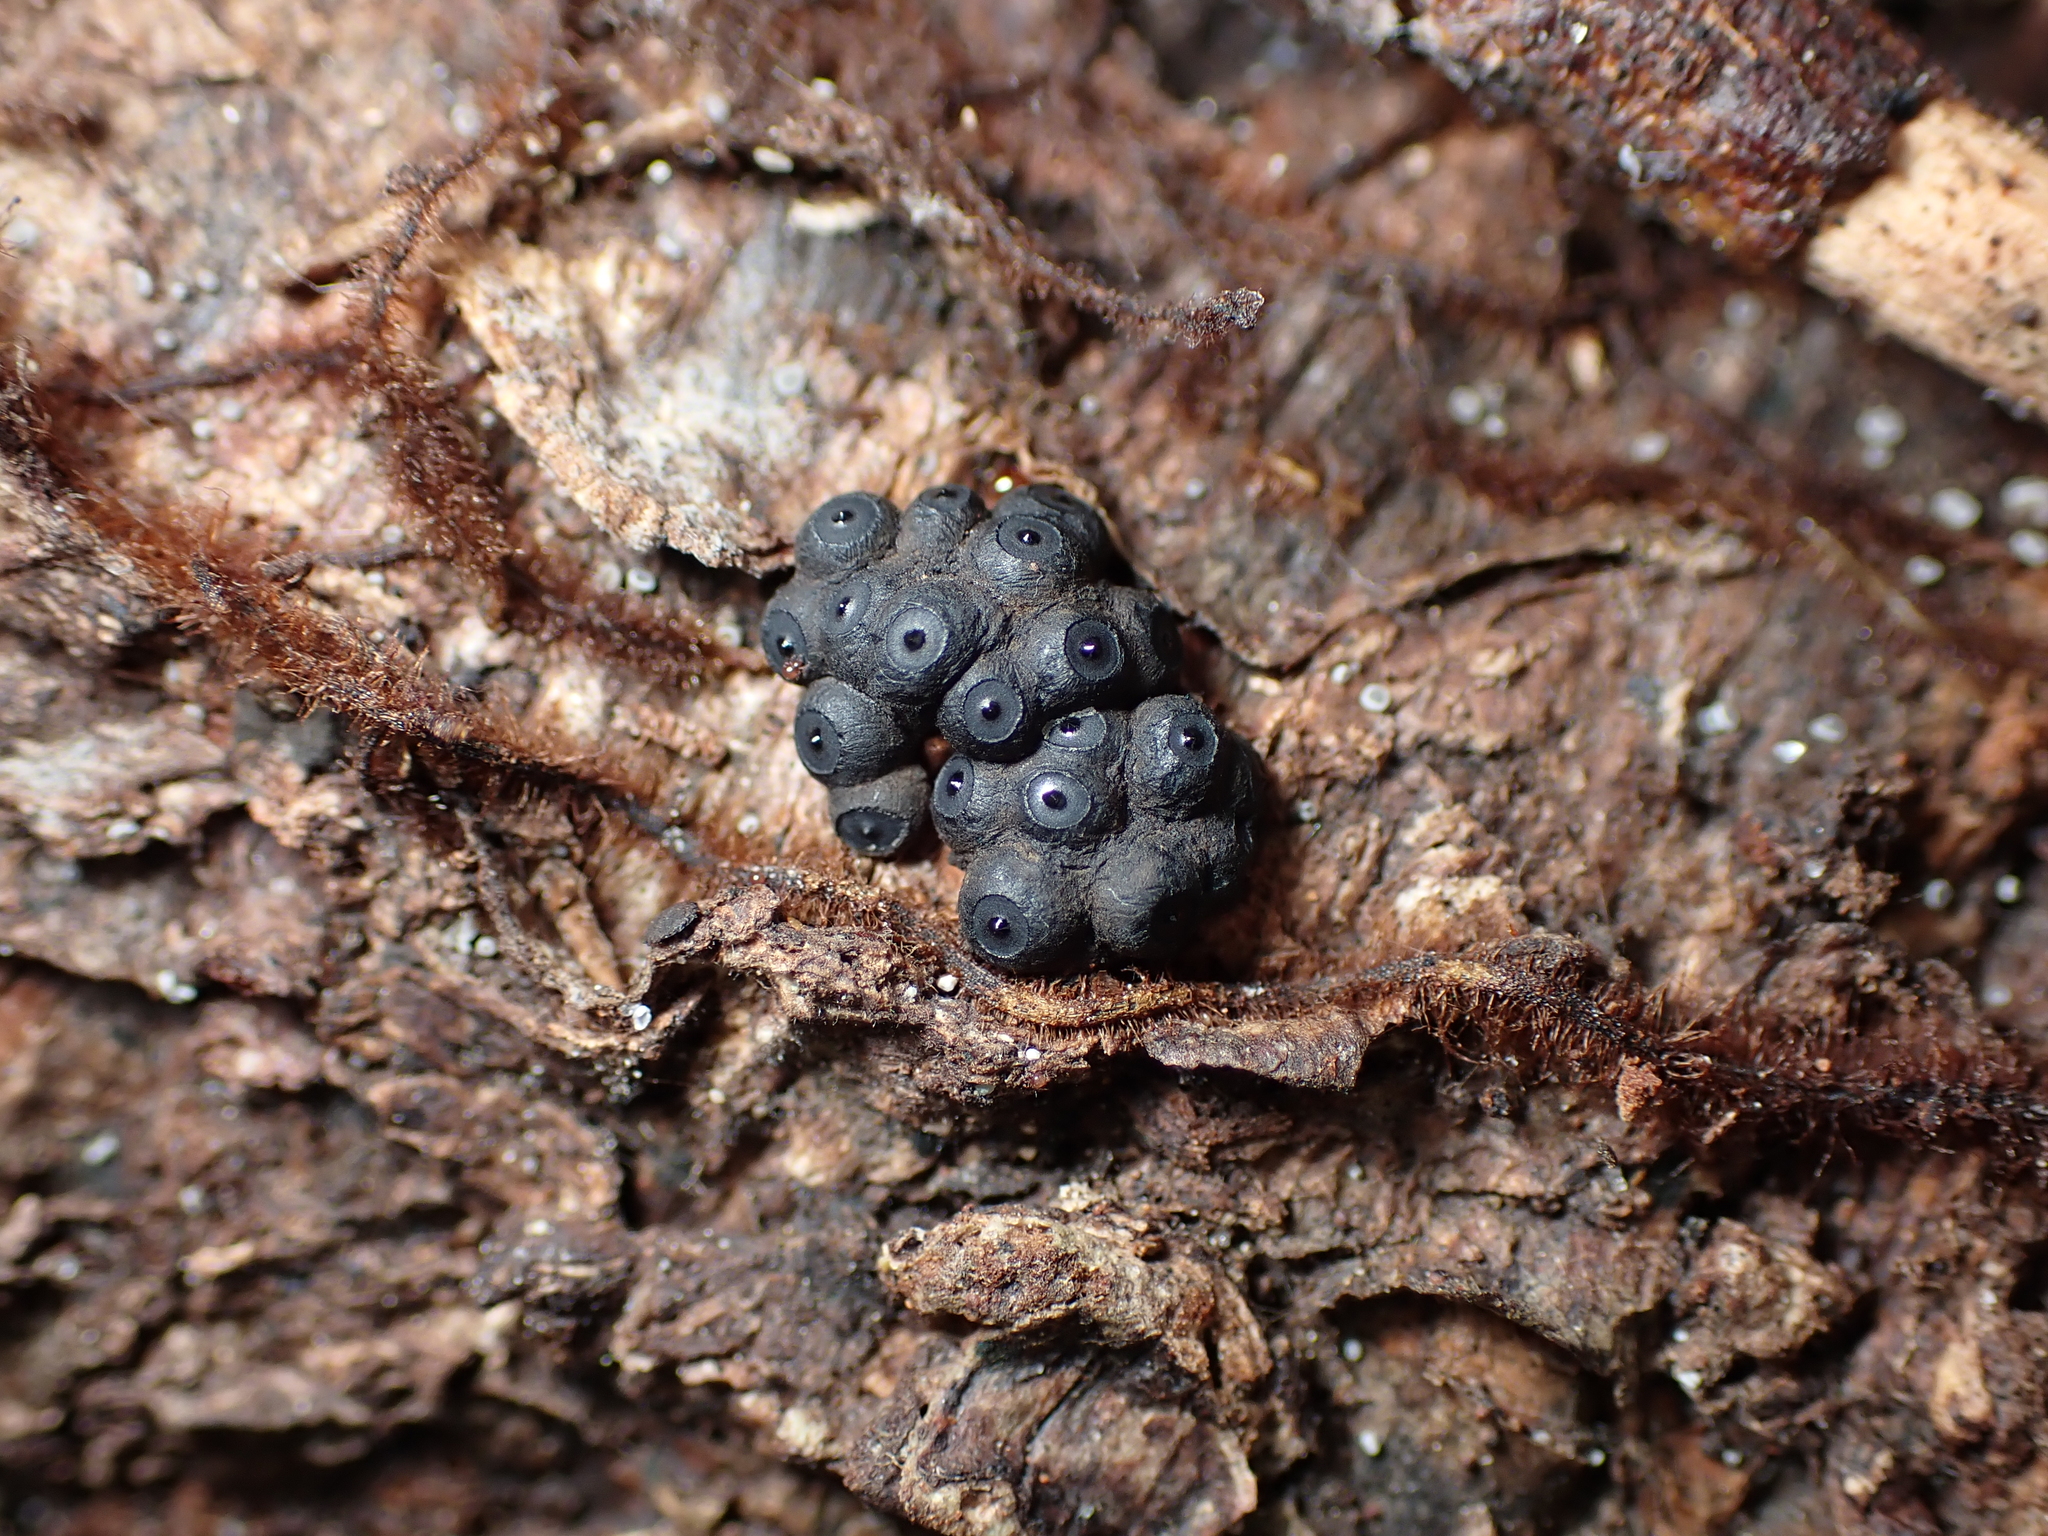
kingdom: Fungi
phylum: Ascomycota
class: Sordariomycetes
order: Xylariales
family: Hypoxylaceae
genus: Annulohypoxylon
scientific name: Annulohypoxylon bovei
